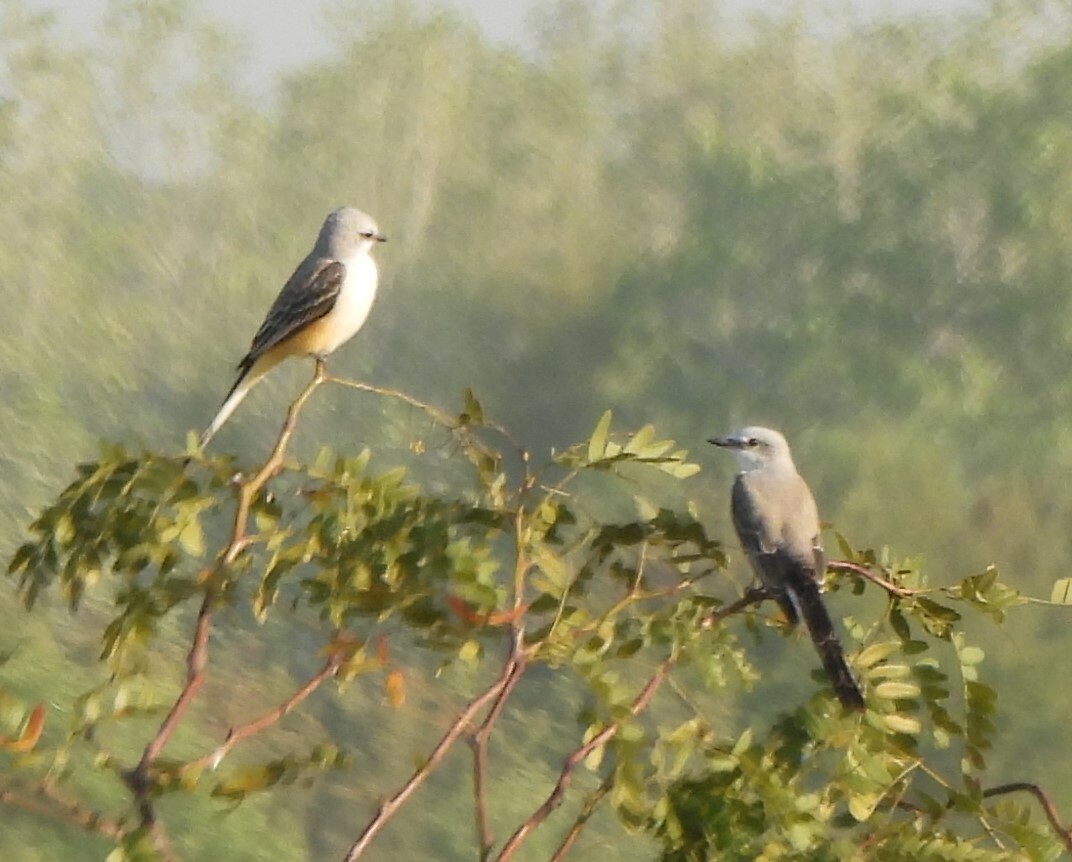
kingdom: Animalia
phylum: Chordata
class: Aves
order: Passeriformes
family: Tyrannidae
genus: Tyrannus
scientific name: Tyrannus forficatus
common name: Scissor-tailed flycatcher
